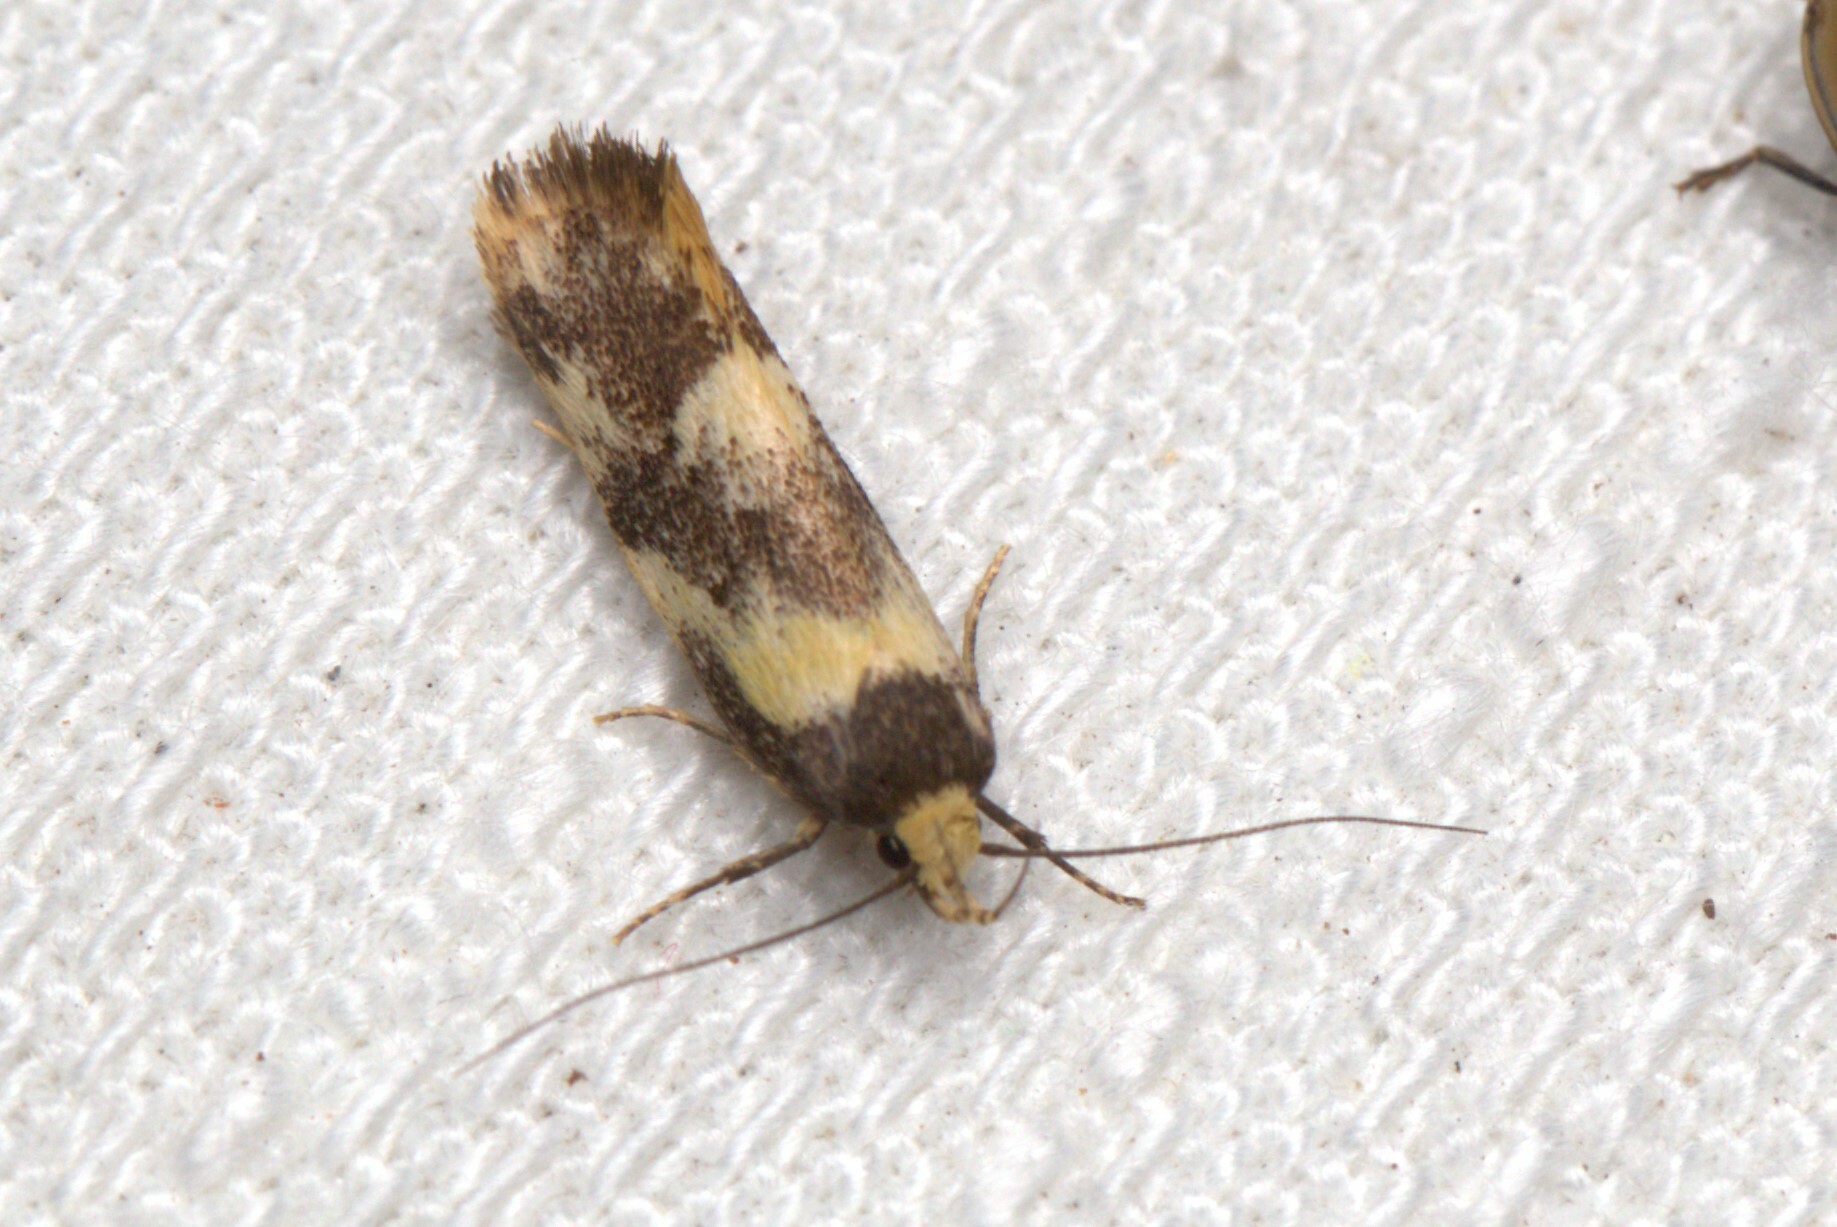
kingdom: Animalia
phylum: Arthropoda
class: Insecta
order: Lepidoptera
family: Oecophoridae
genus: Eulechria
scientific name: Eulechria marmorata
